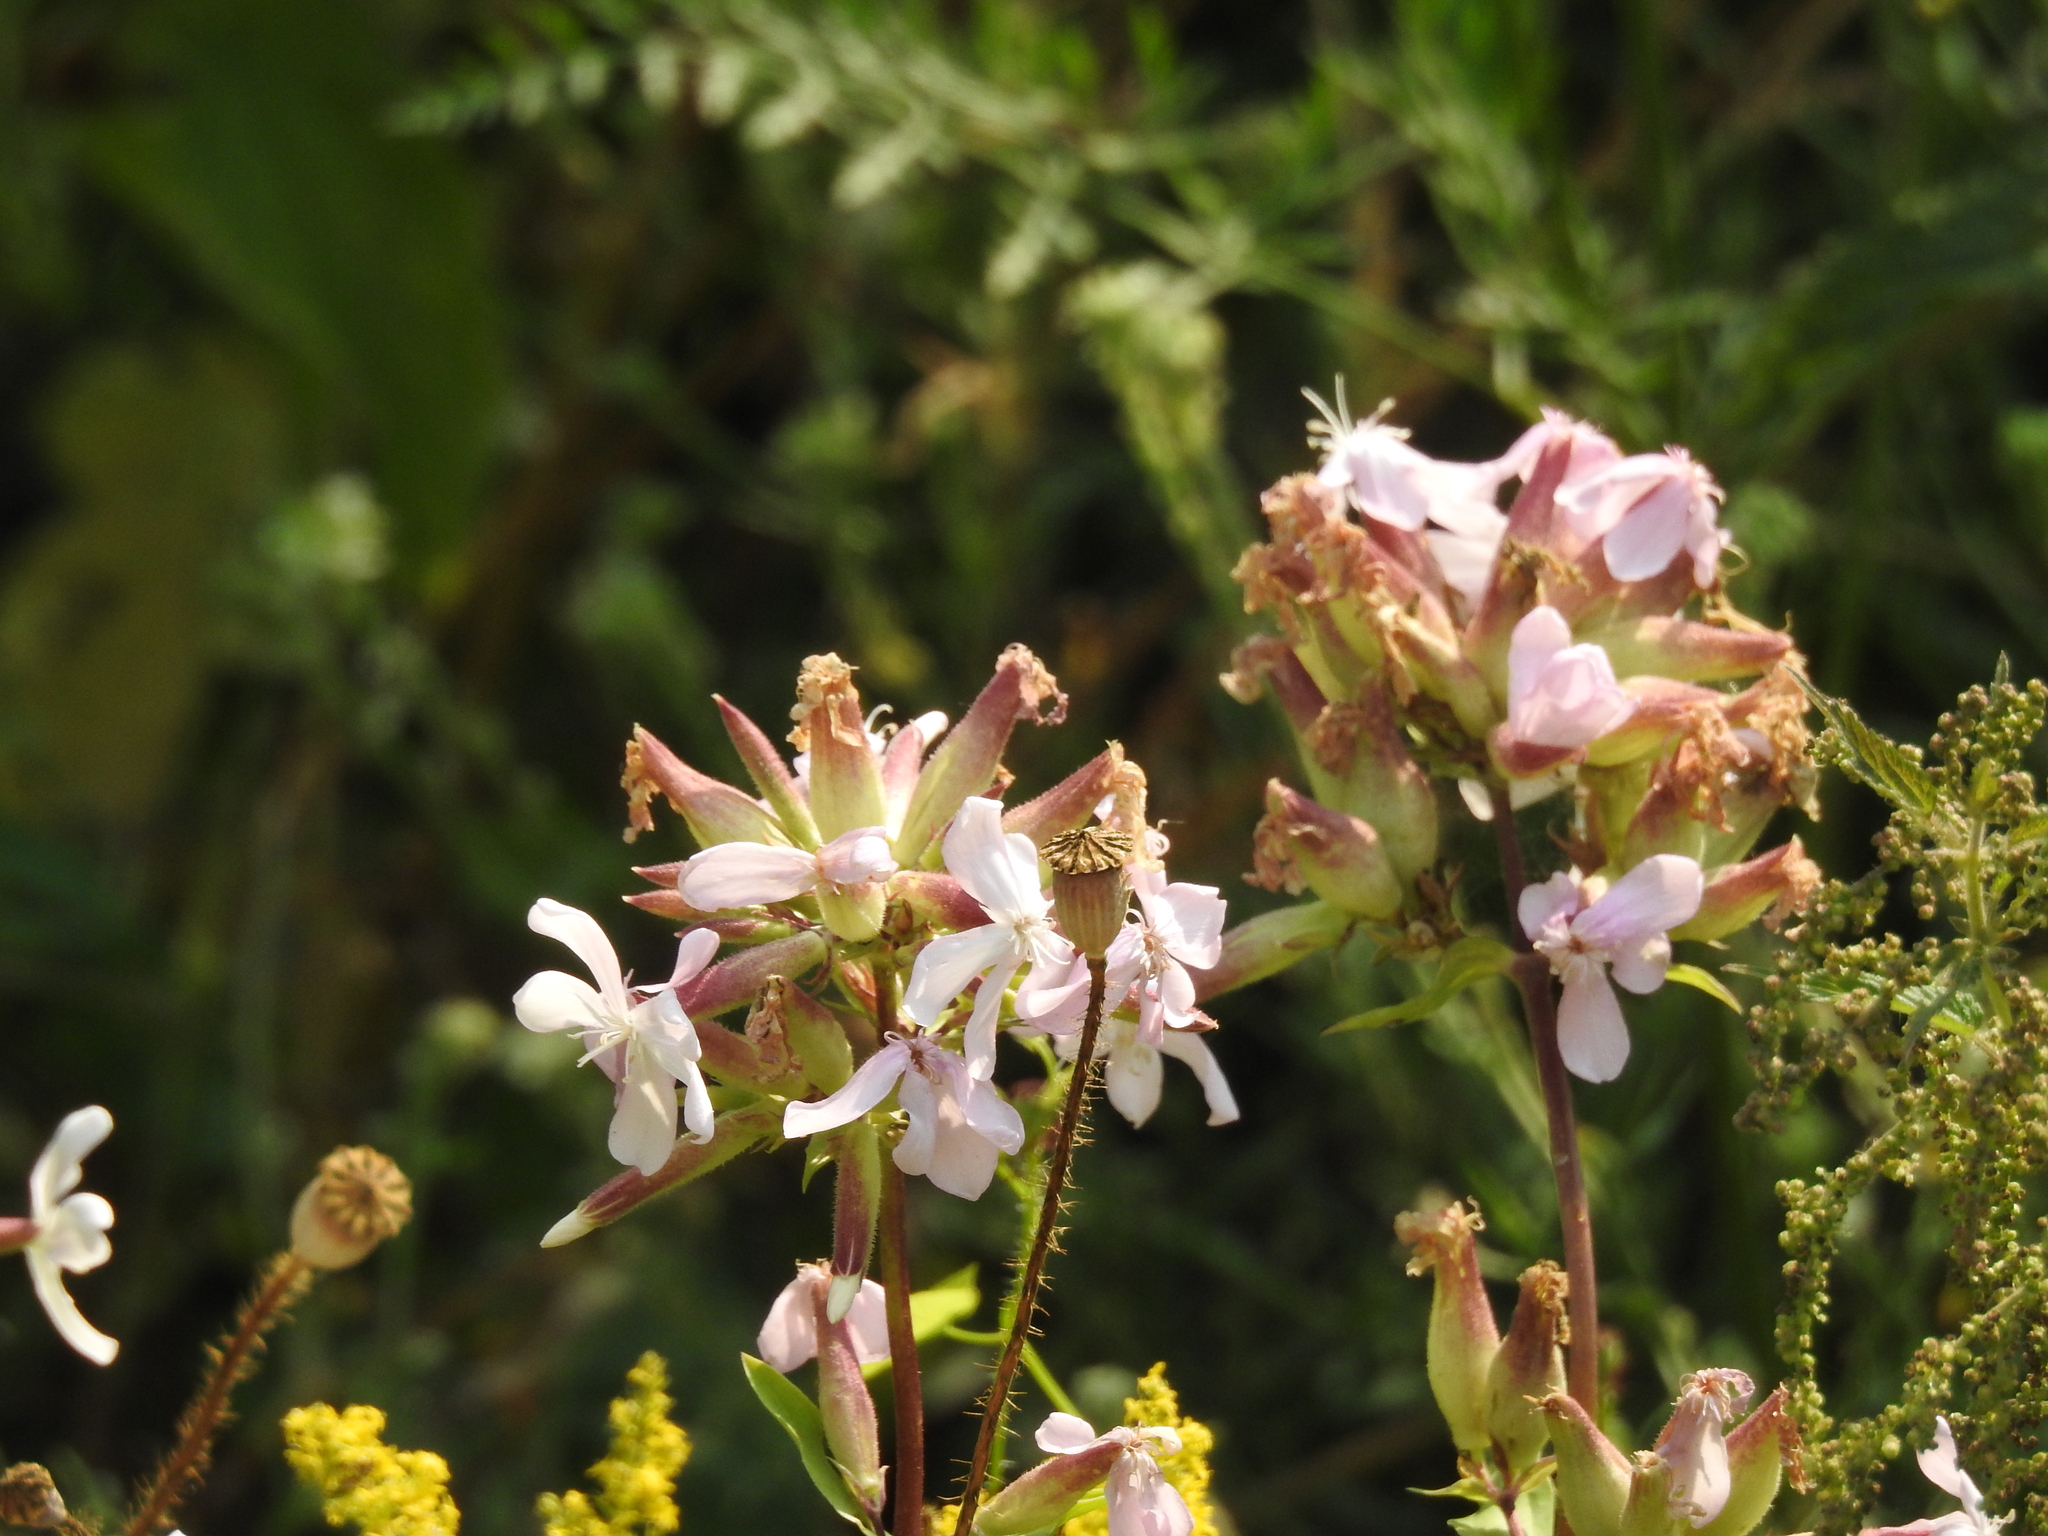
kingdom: Plantae
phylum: Tracheophyta
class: Magnoliopsida
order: Caryophyllales
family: Caryophyllaceae
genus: Saponaria
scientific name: Saponaria officinalis
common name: Soapwort
